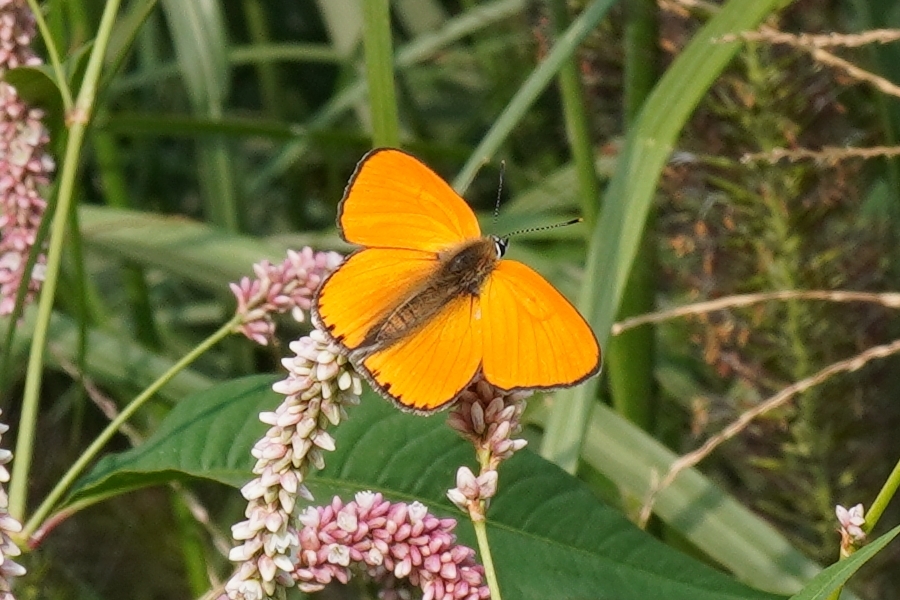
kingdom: Animalia
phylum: Arthropoda
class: Insecta
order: Lepidoptera
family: Lycaenidae
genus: Lycaena
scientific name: Lycaena dispar
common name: Large copper
